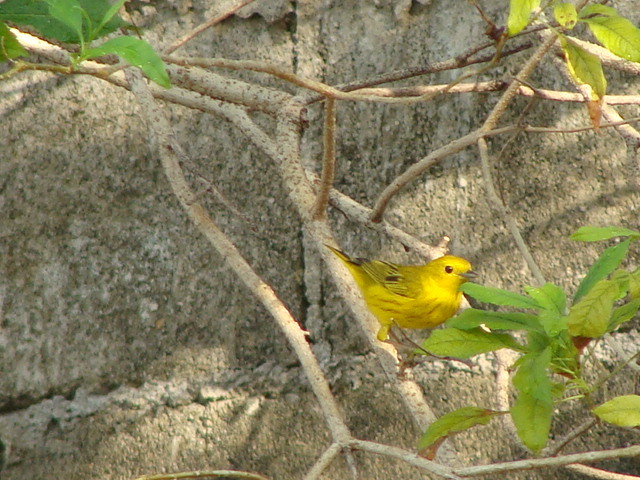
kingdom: Animalia
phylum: Chordata
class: Aves
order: Passeriformes
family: Parulidae
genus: Setophaga
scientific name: Setophaga petechia
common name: Yellow warbler
